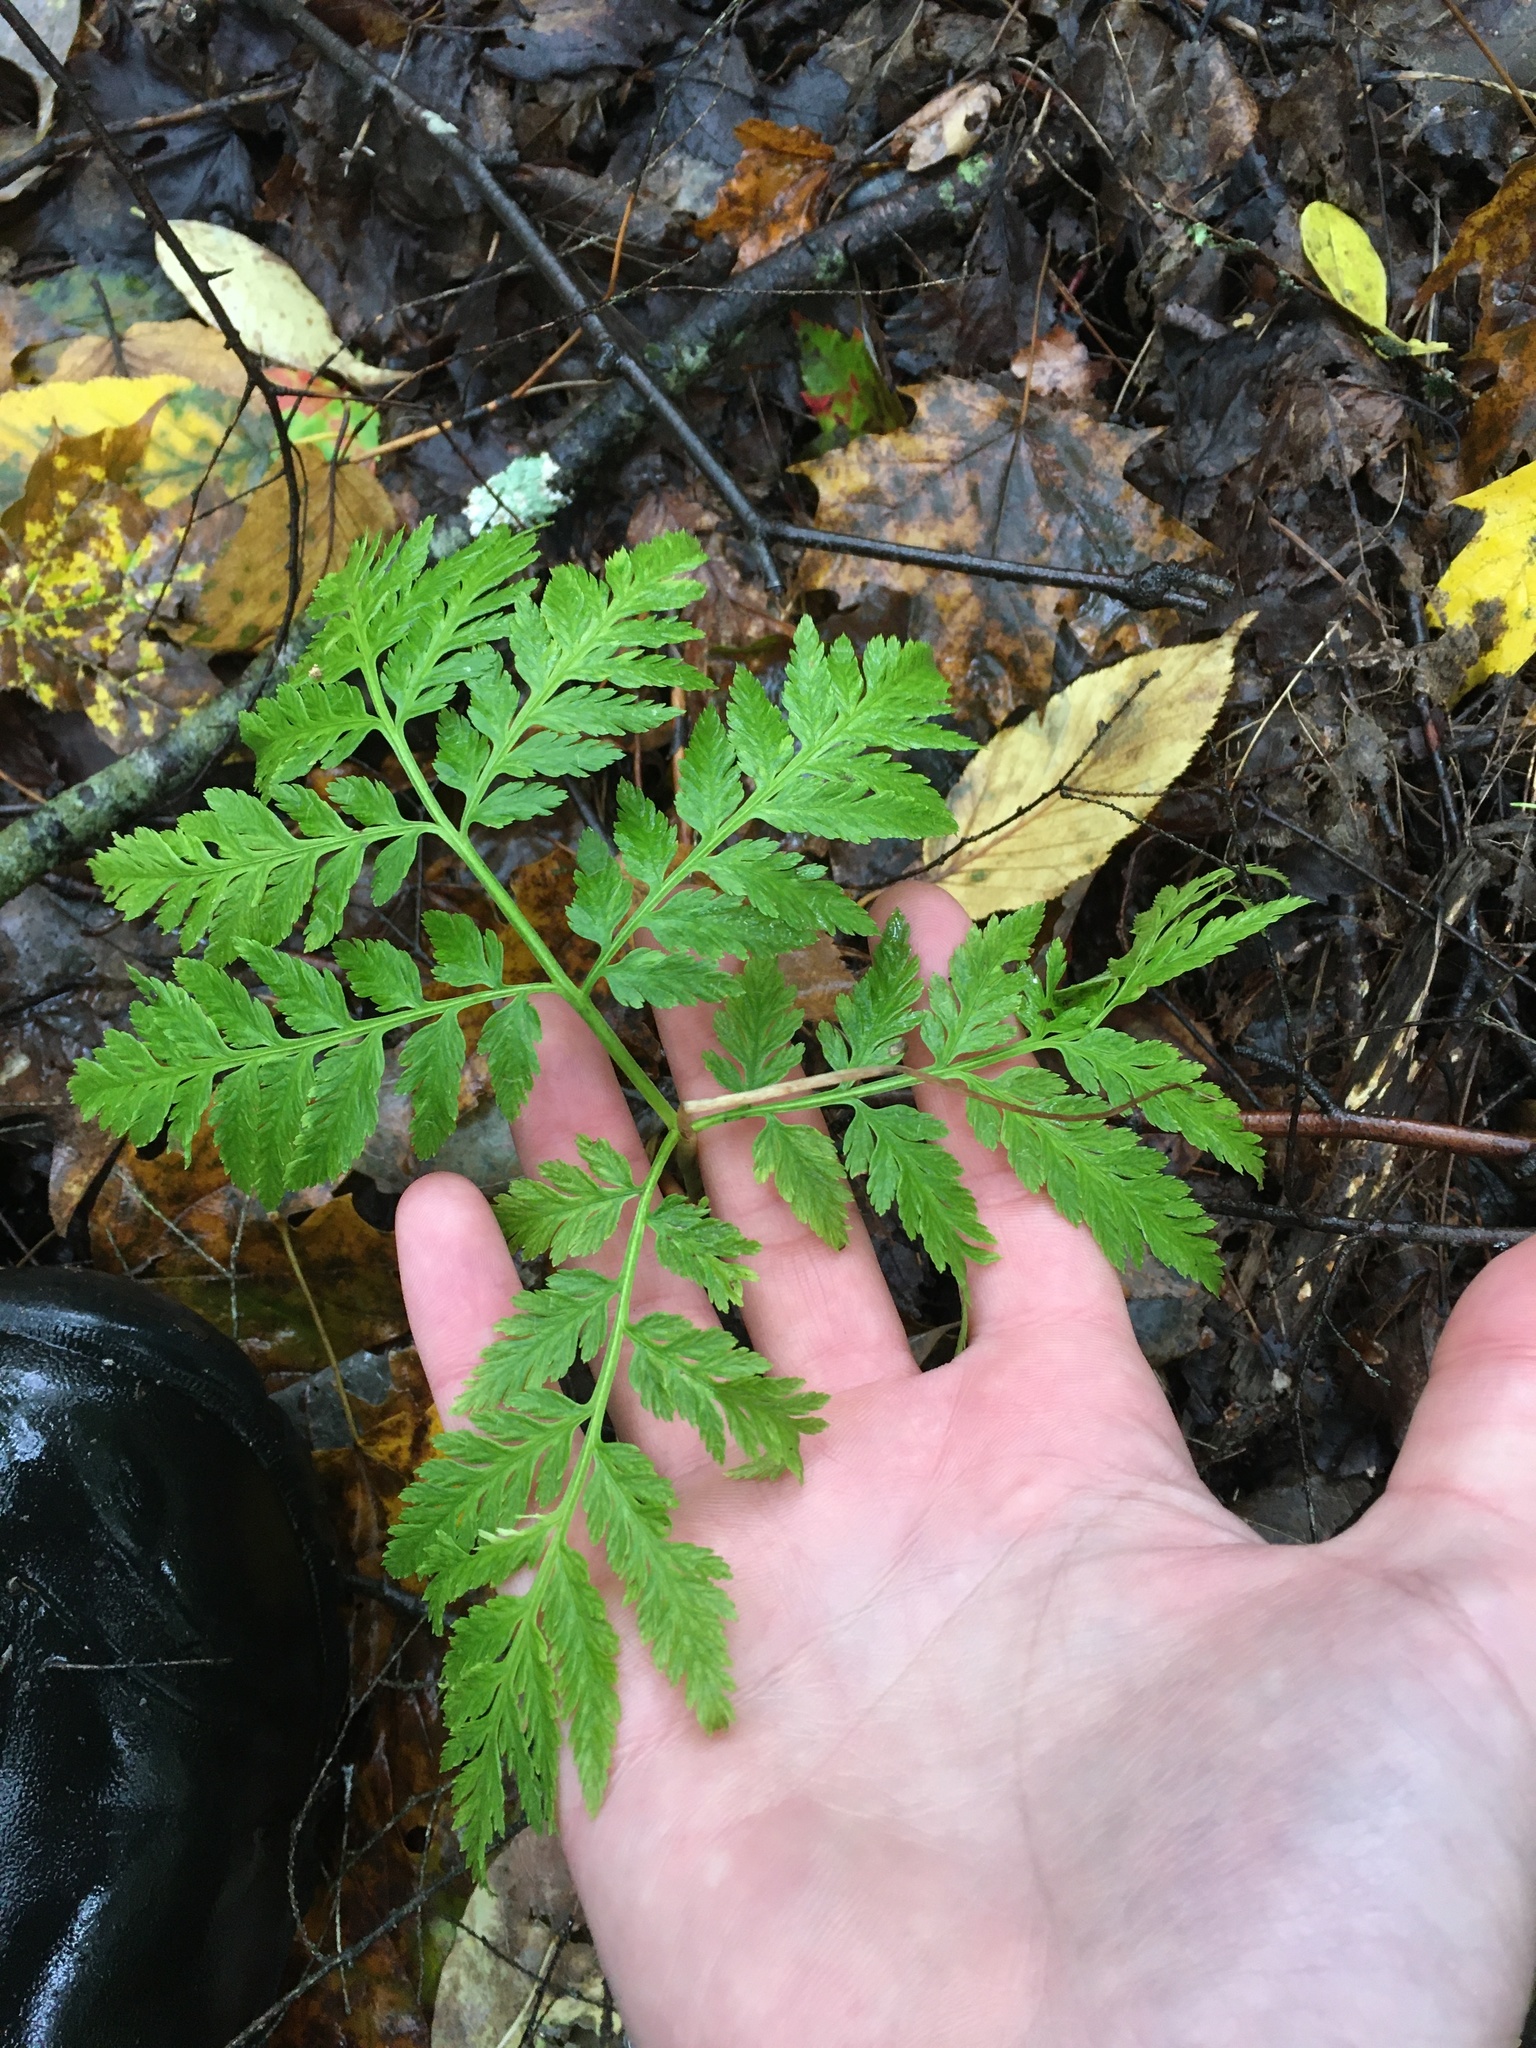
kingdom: Plantae
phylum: Tracheophyta
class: Polypodiopsida
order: Ophioglossales
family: Ophioglossaceae
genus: Botrypus
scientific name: Botrypus virginianus
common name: Common grapefern
